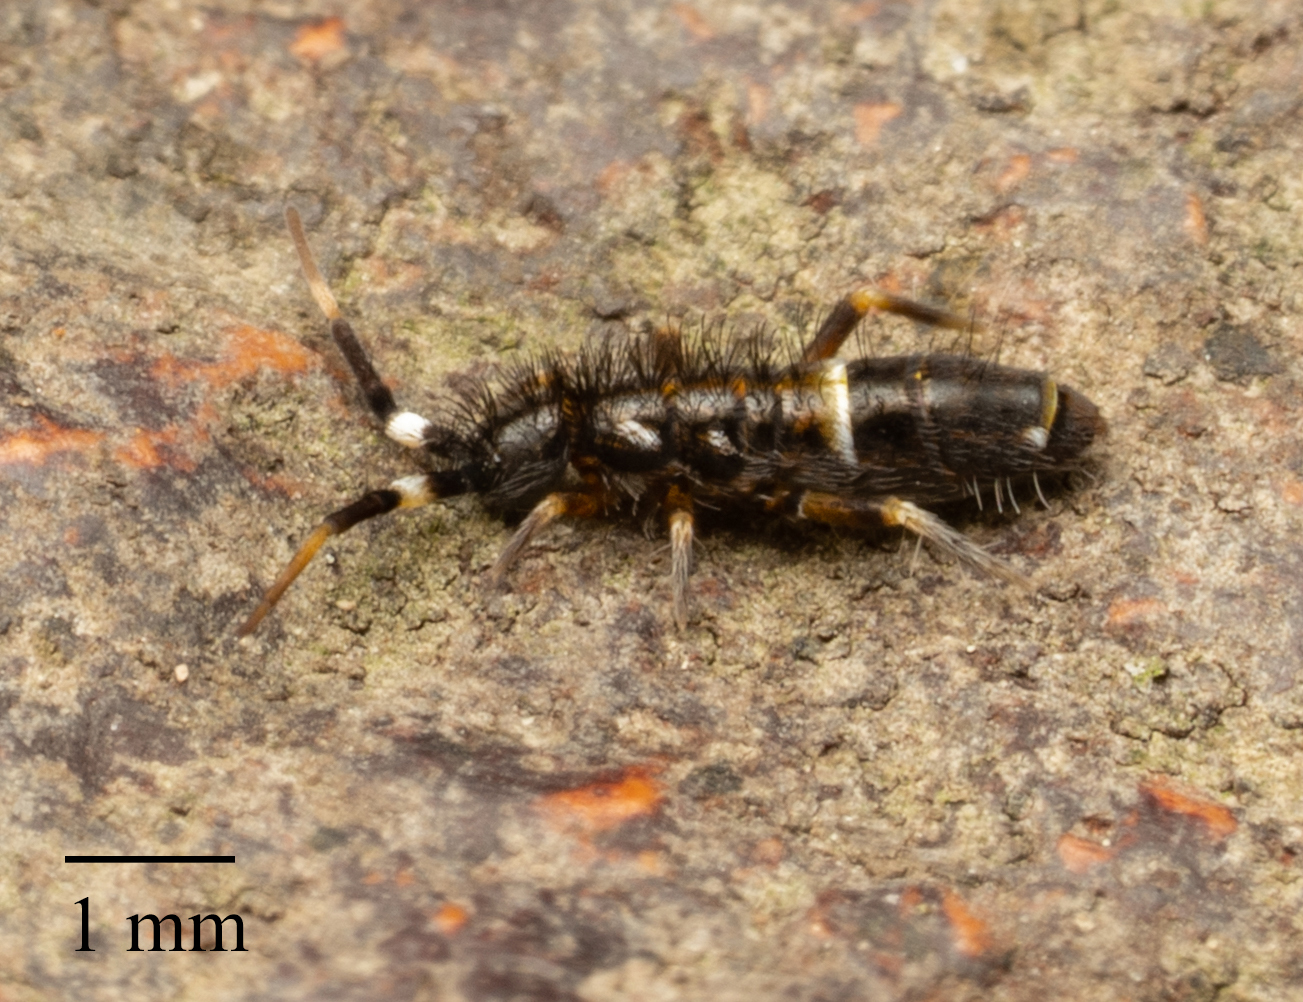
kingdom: Animalia
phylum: Arthropoda
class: Collembola
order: Entomobryomorpha
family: Orchesellidae
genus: Orchesella
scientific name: Orchesella cincta
